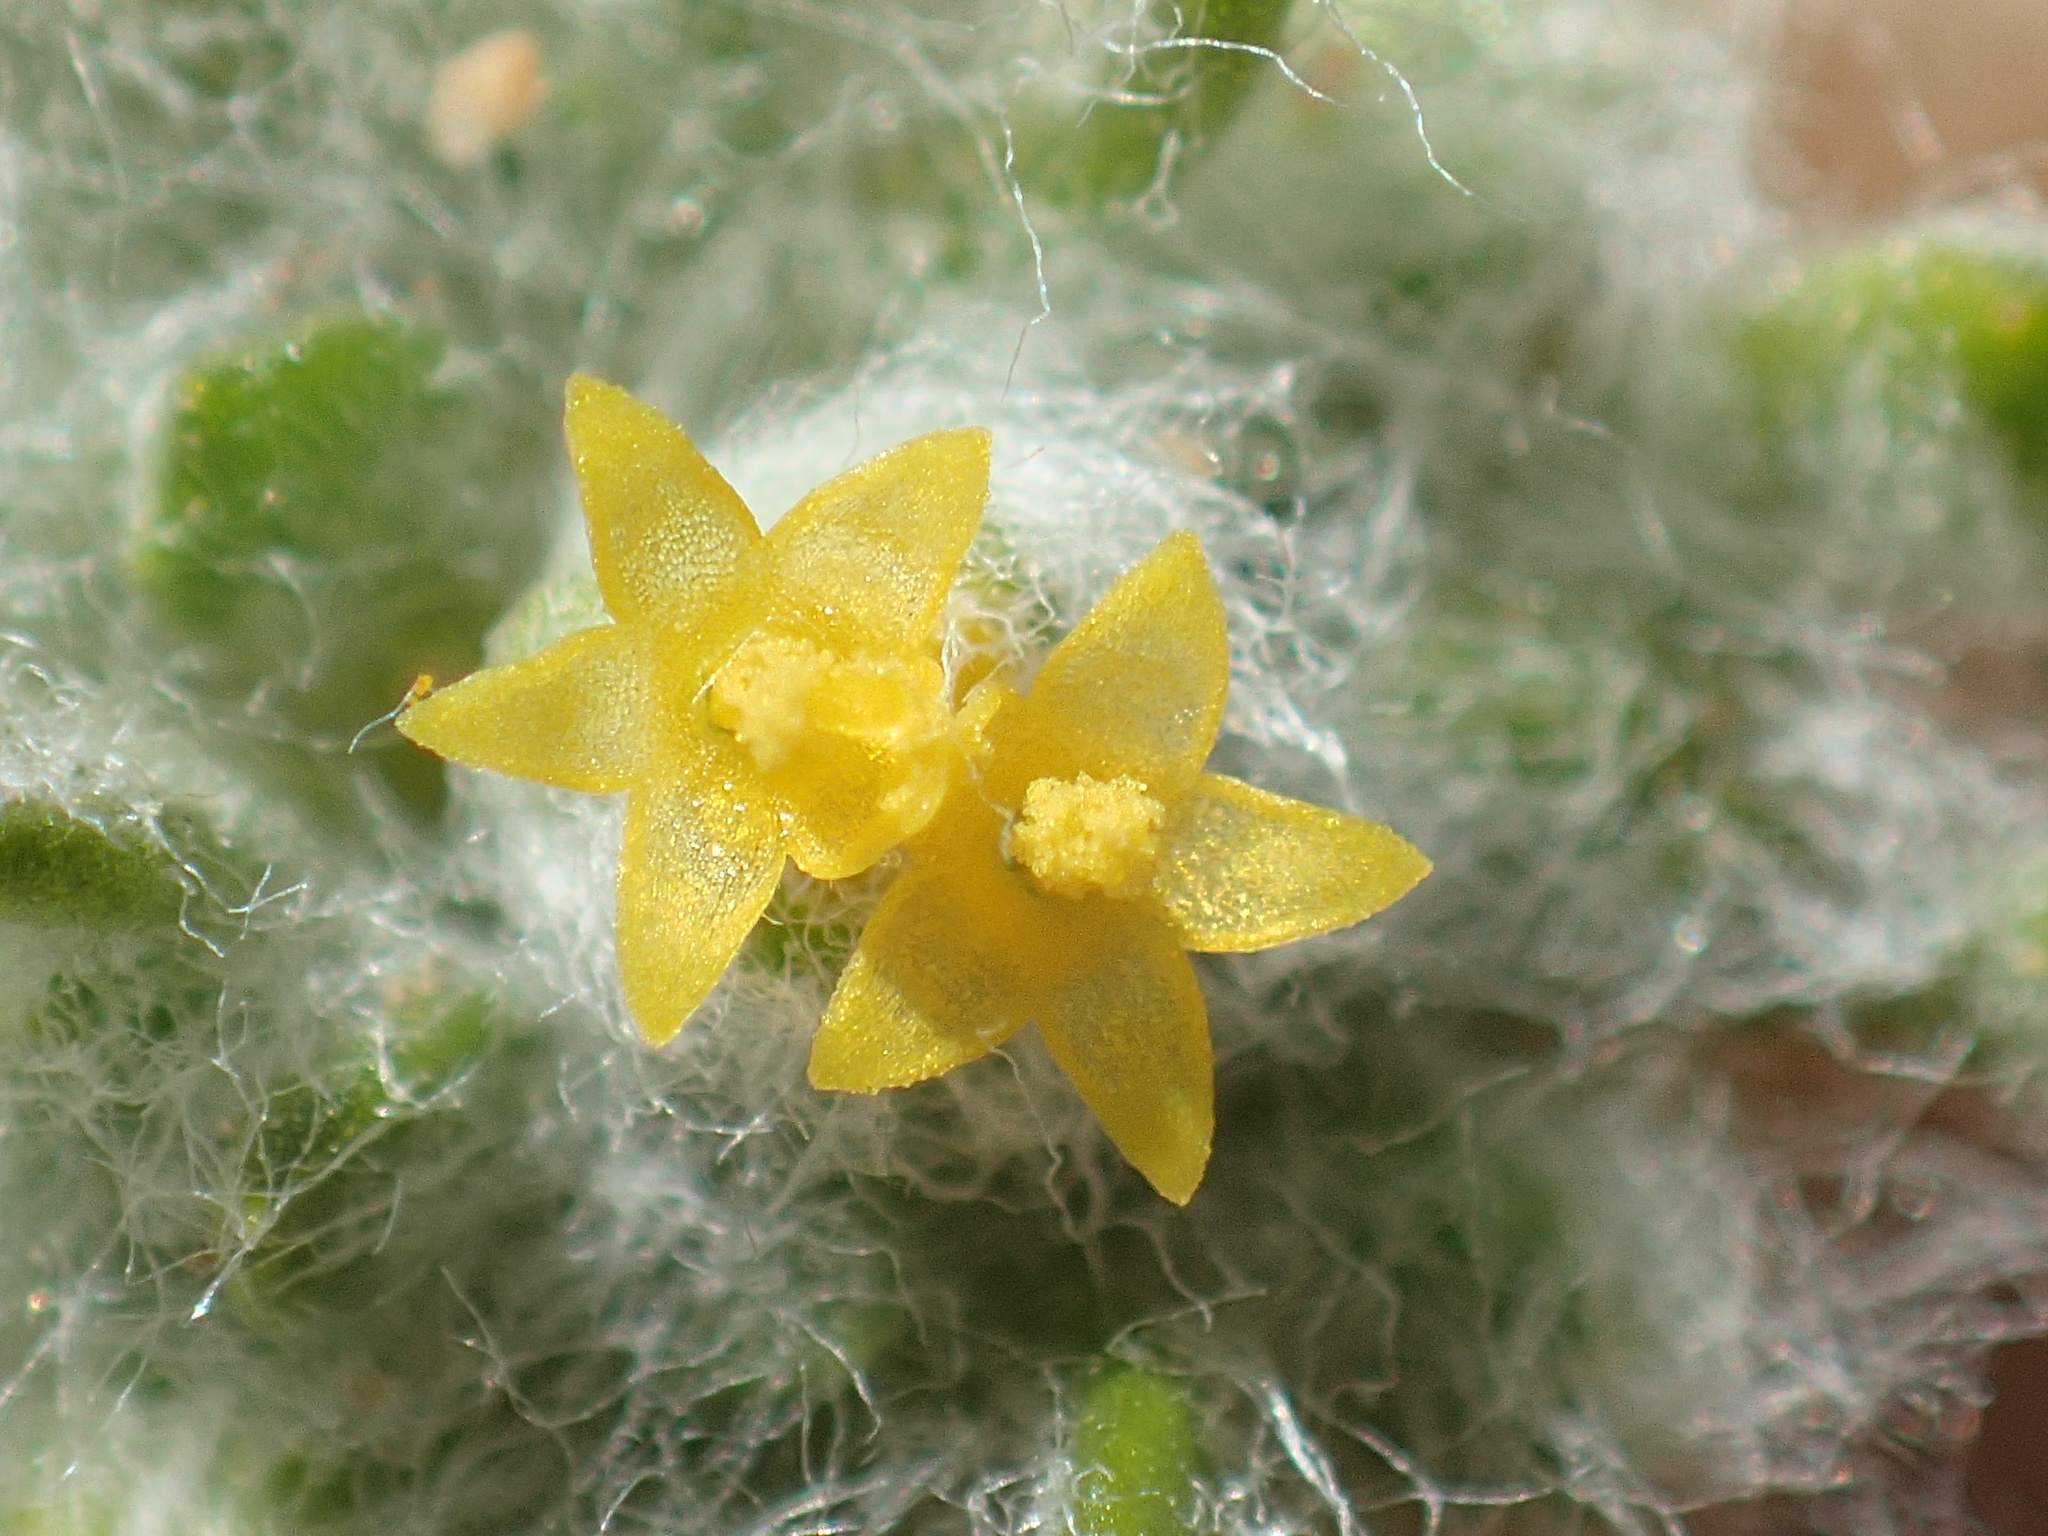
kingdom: Plantae
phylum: Tracheophyta
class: Magnoliopsida
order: Asterales
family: Asteraceae
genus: Eriophyllum
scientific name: Eriophyllum mohavense
